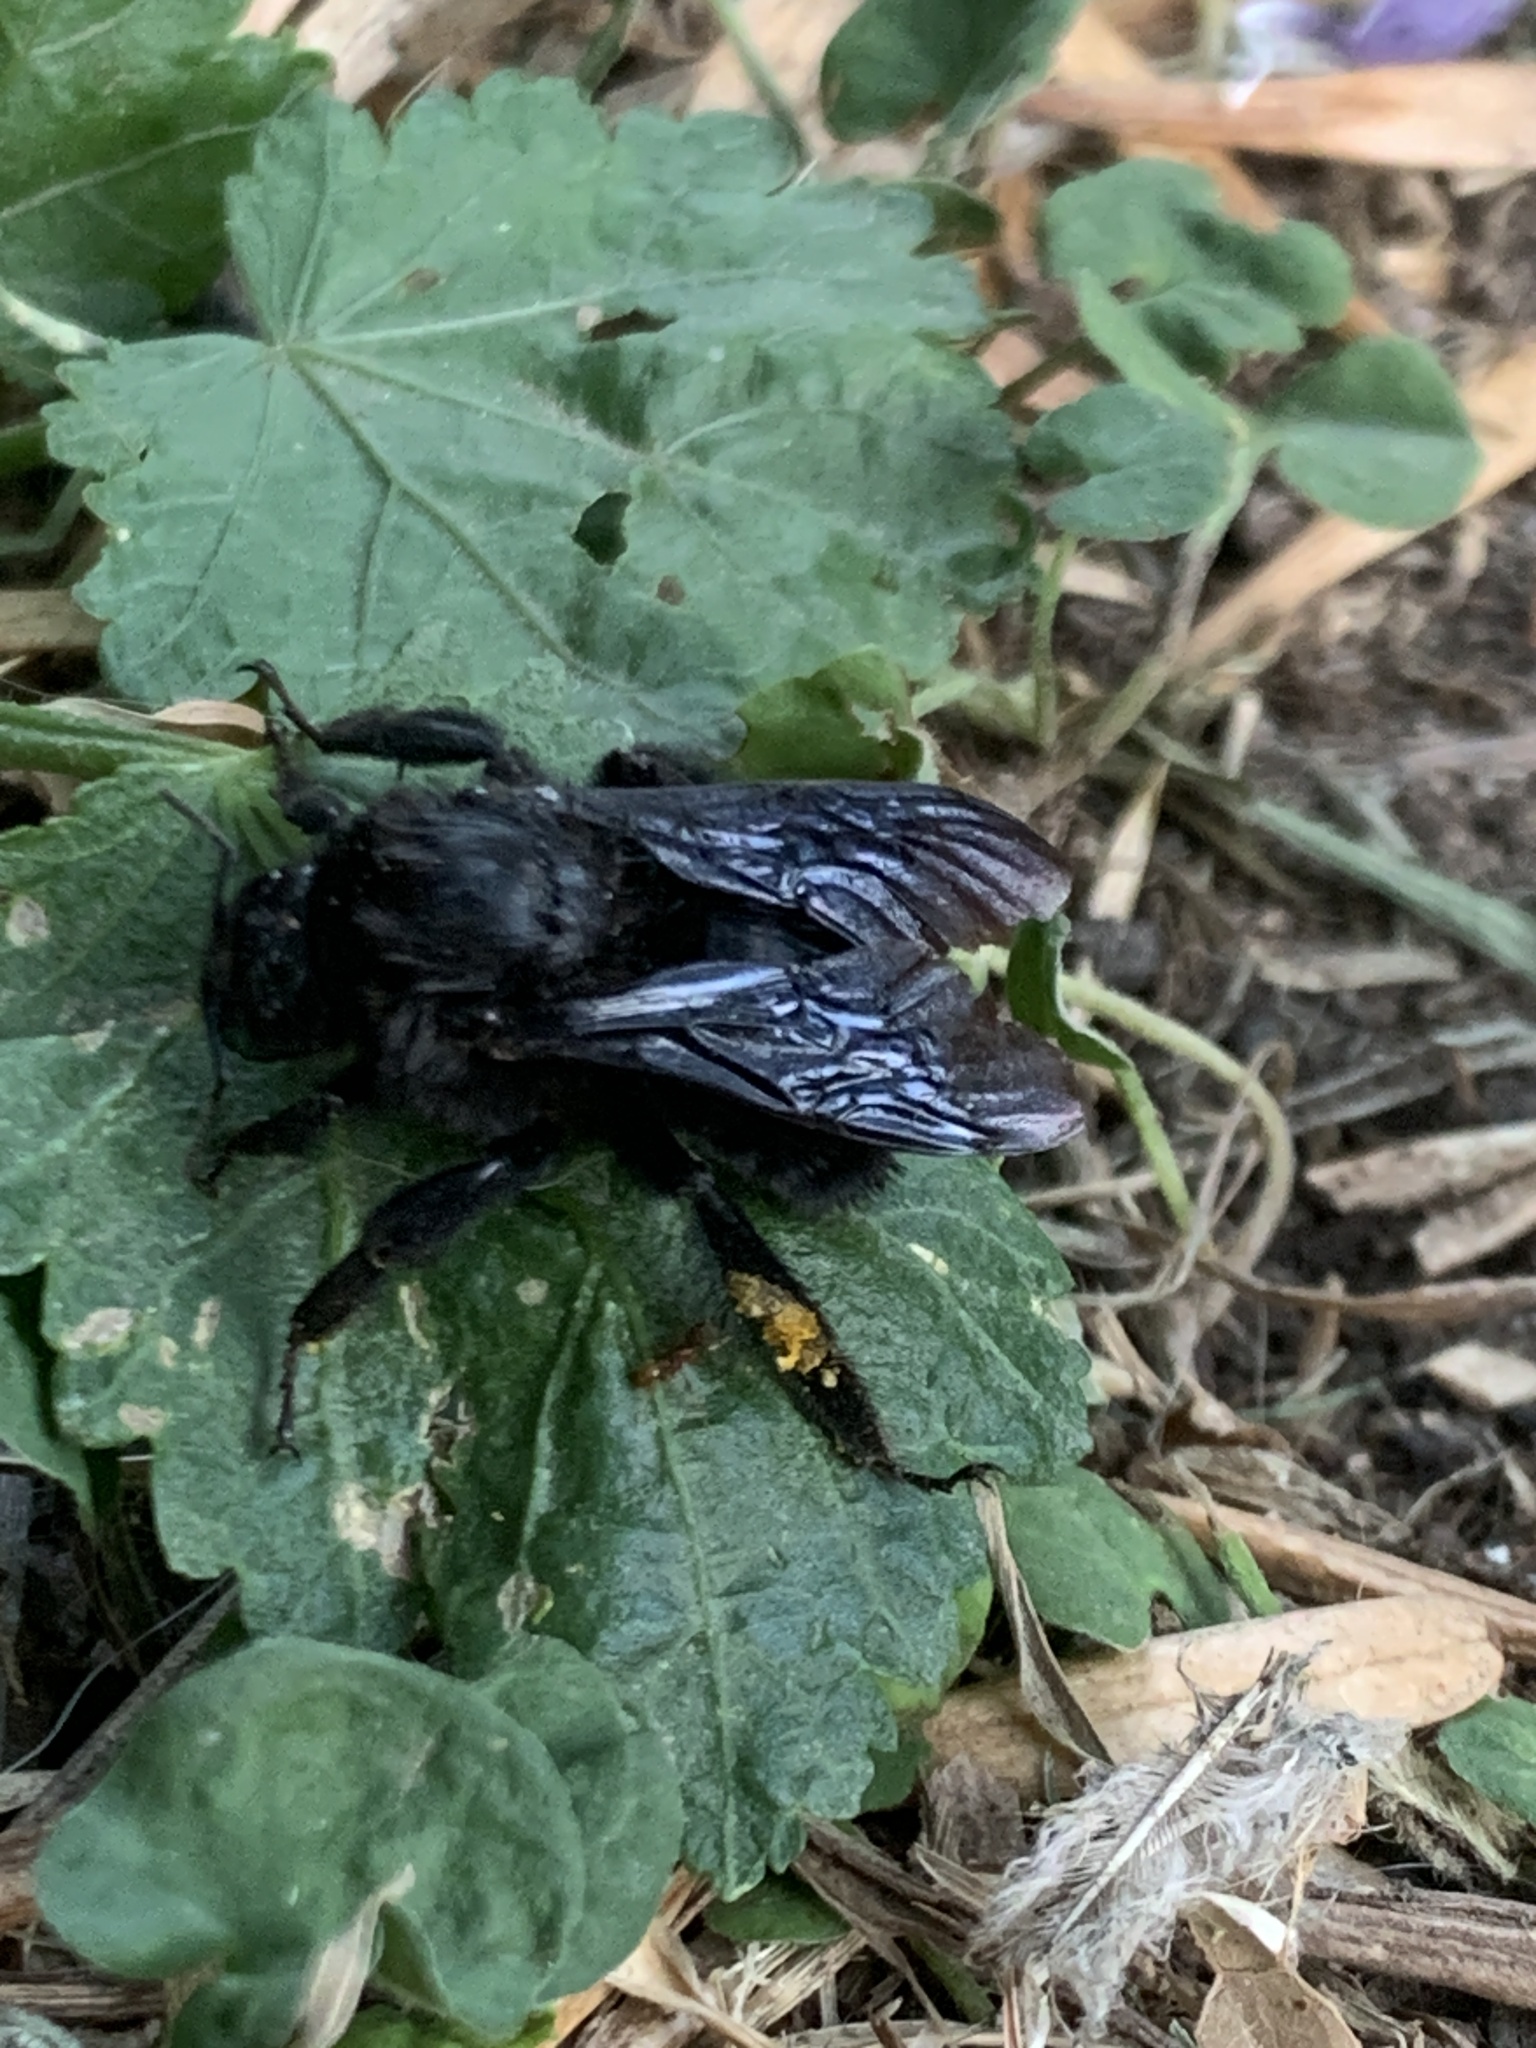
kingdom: Animalia
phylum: Arthropoda
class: Insecta
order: Hymenoptera
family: Apidae
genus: Bombus
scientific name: Bombus pauloensis
